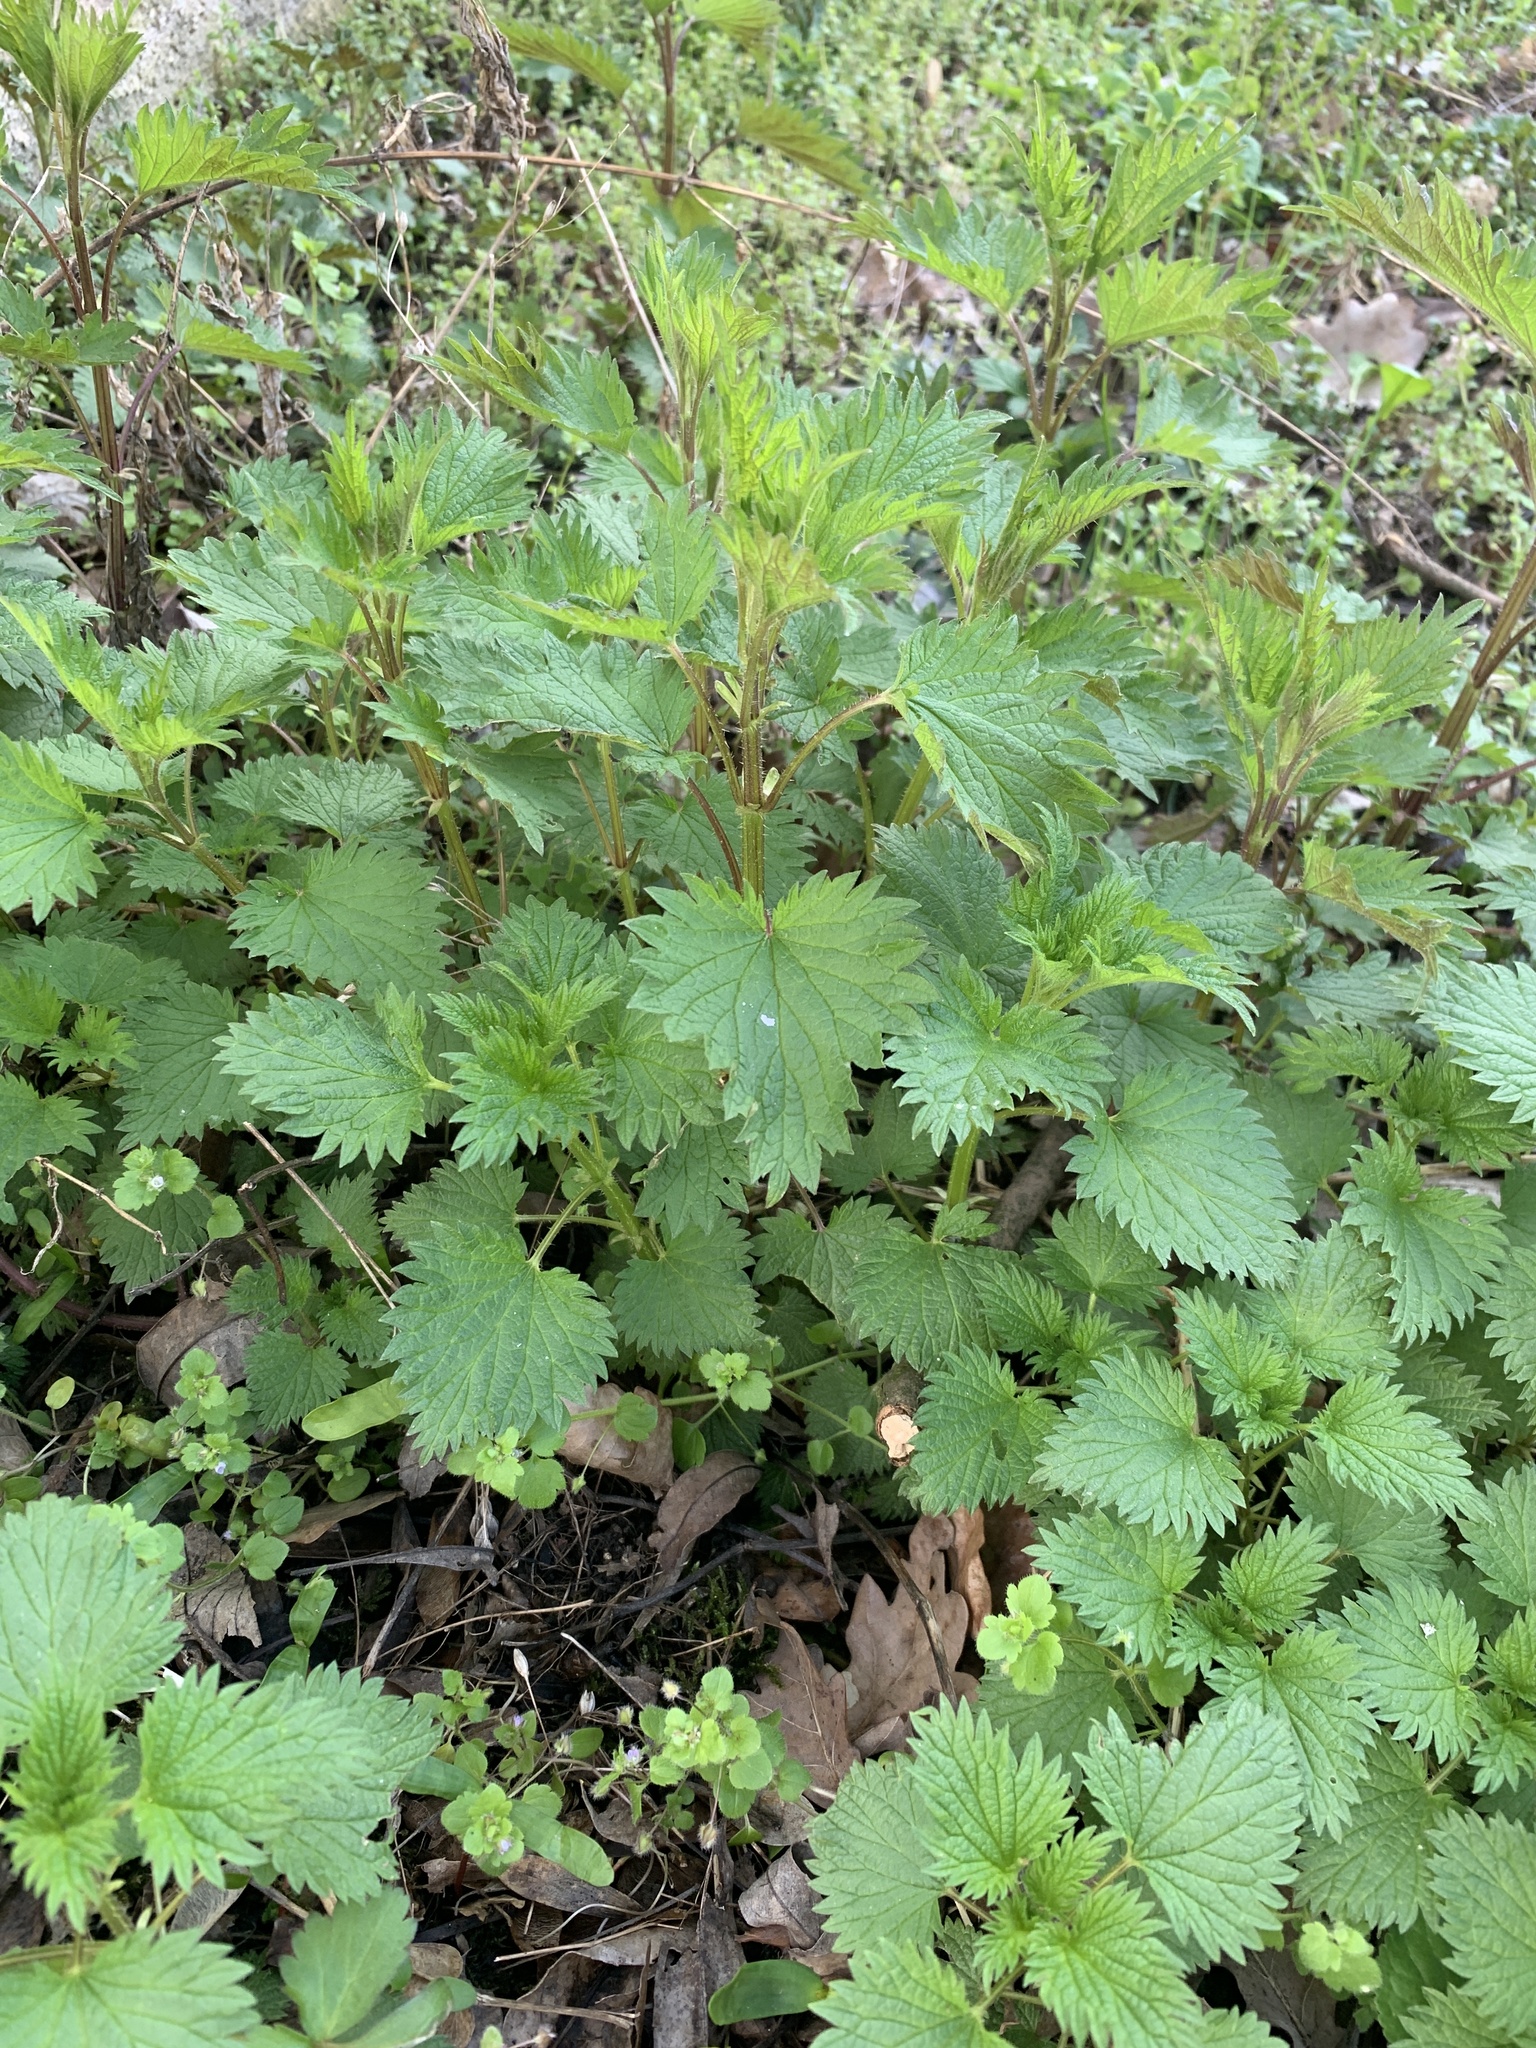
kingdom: Plantae
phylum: Tracheophyta
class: Magnoliopsida
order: Rosales
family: Urticaceae
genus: Urtica
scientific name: Urtica dioica
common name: Common nettle
